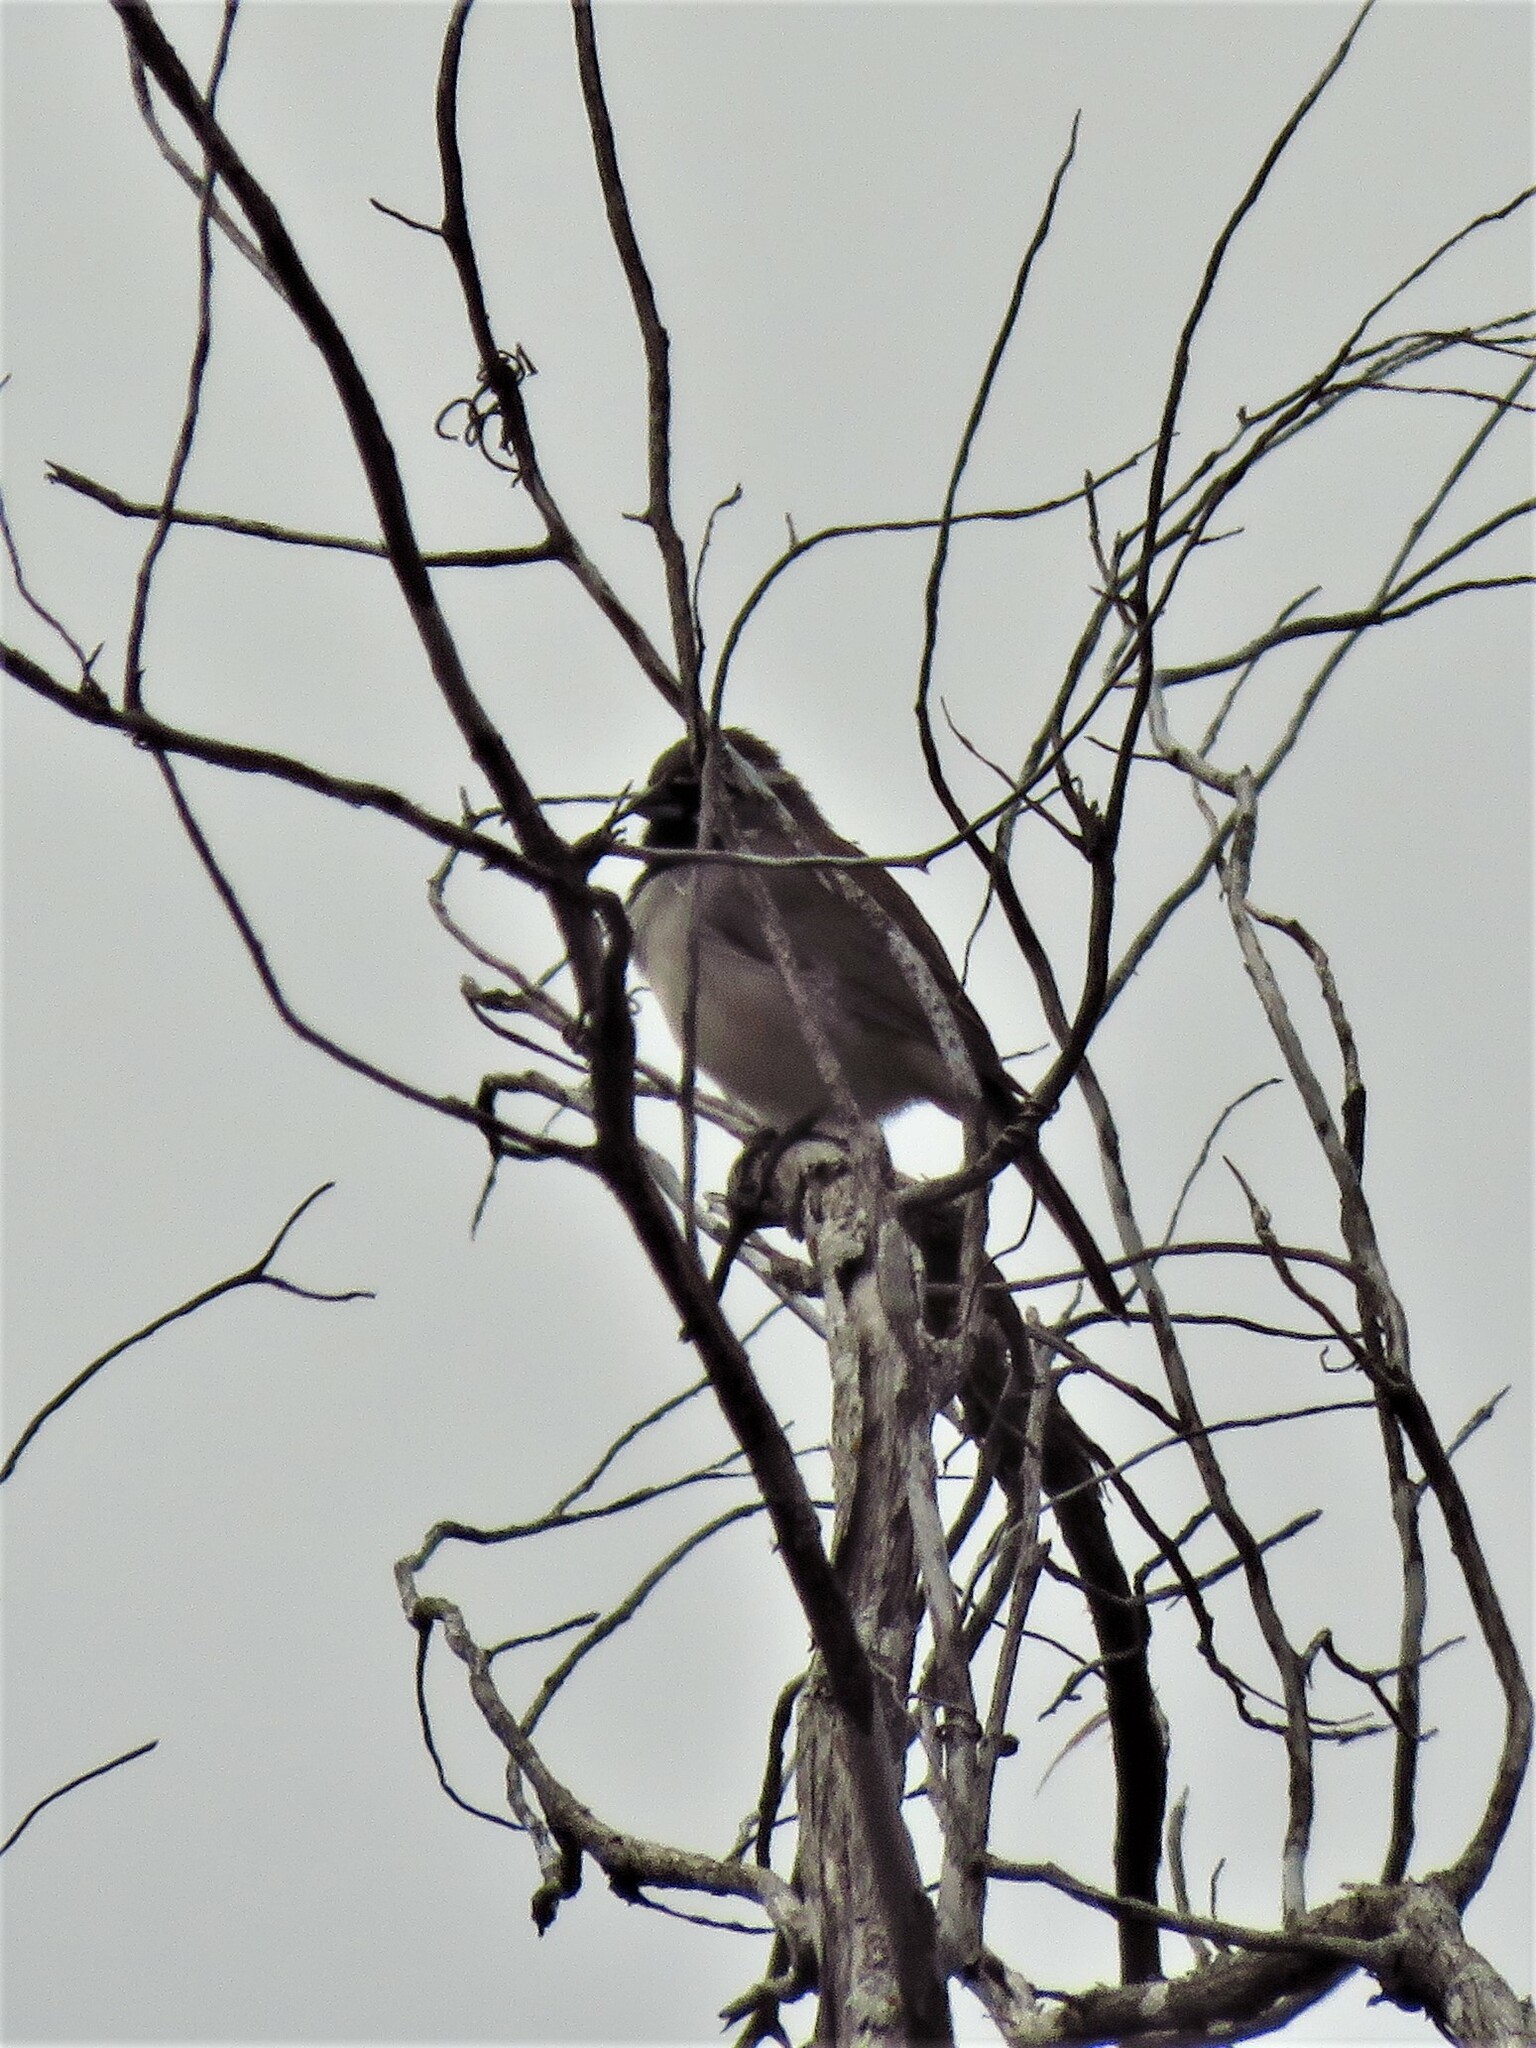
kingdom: Animalia
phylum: Chordata
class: Aves
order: Passeriformes
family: Passerellidae
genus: Amphispiza
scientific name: Amphispiza bilineata
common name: Black-throated sparrow
